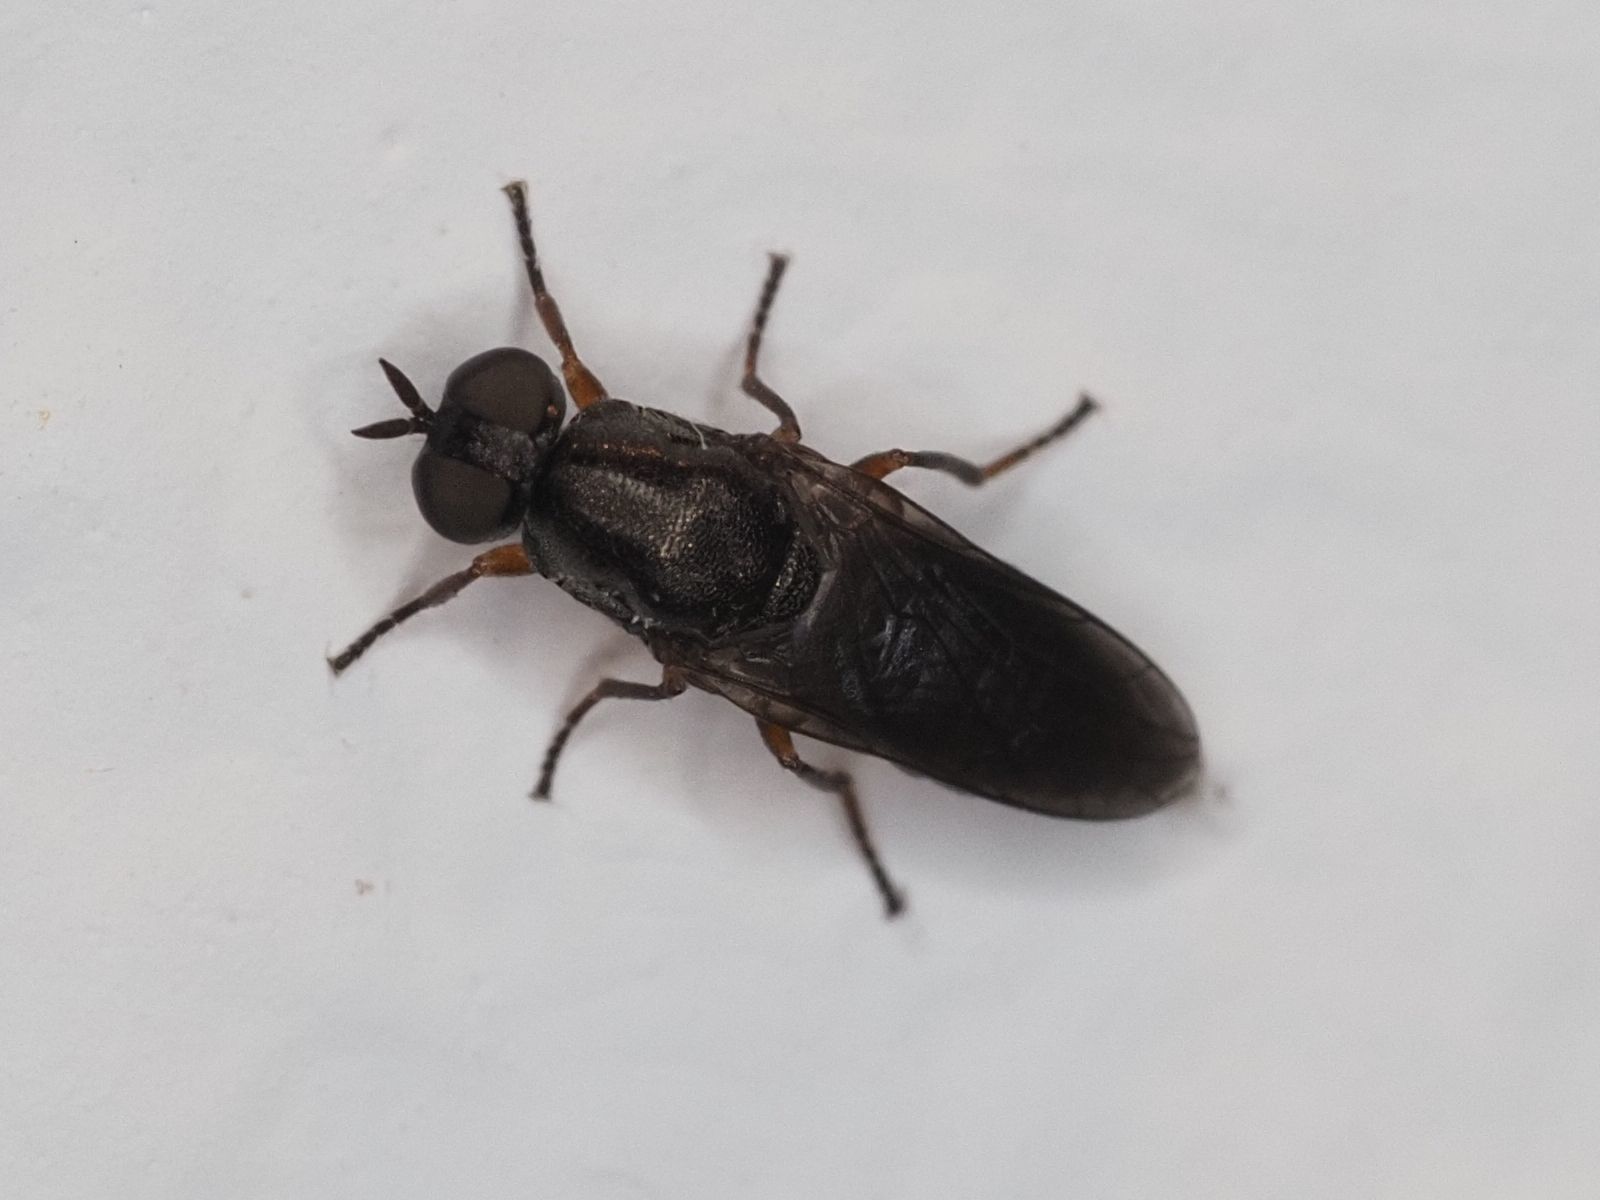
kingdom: Animalia
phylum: Arthropoda
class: Insecta
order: Diptera
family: Scenopinidae
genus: Scenopinus
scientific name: Scenopinus fenestralis
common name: House windowfly
